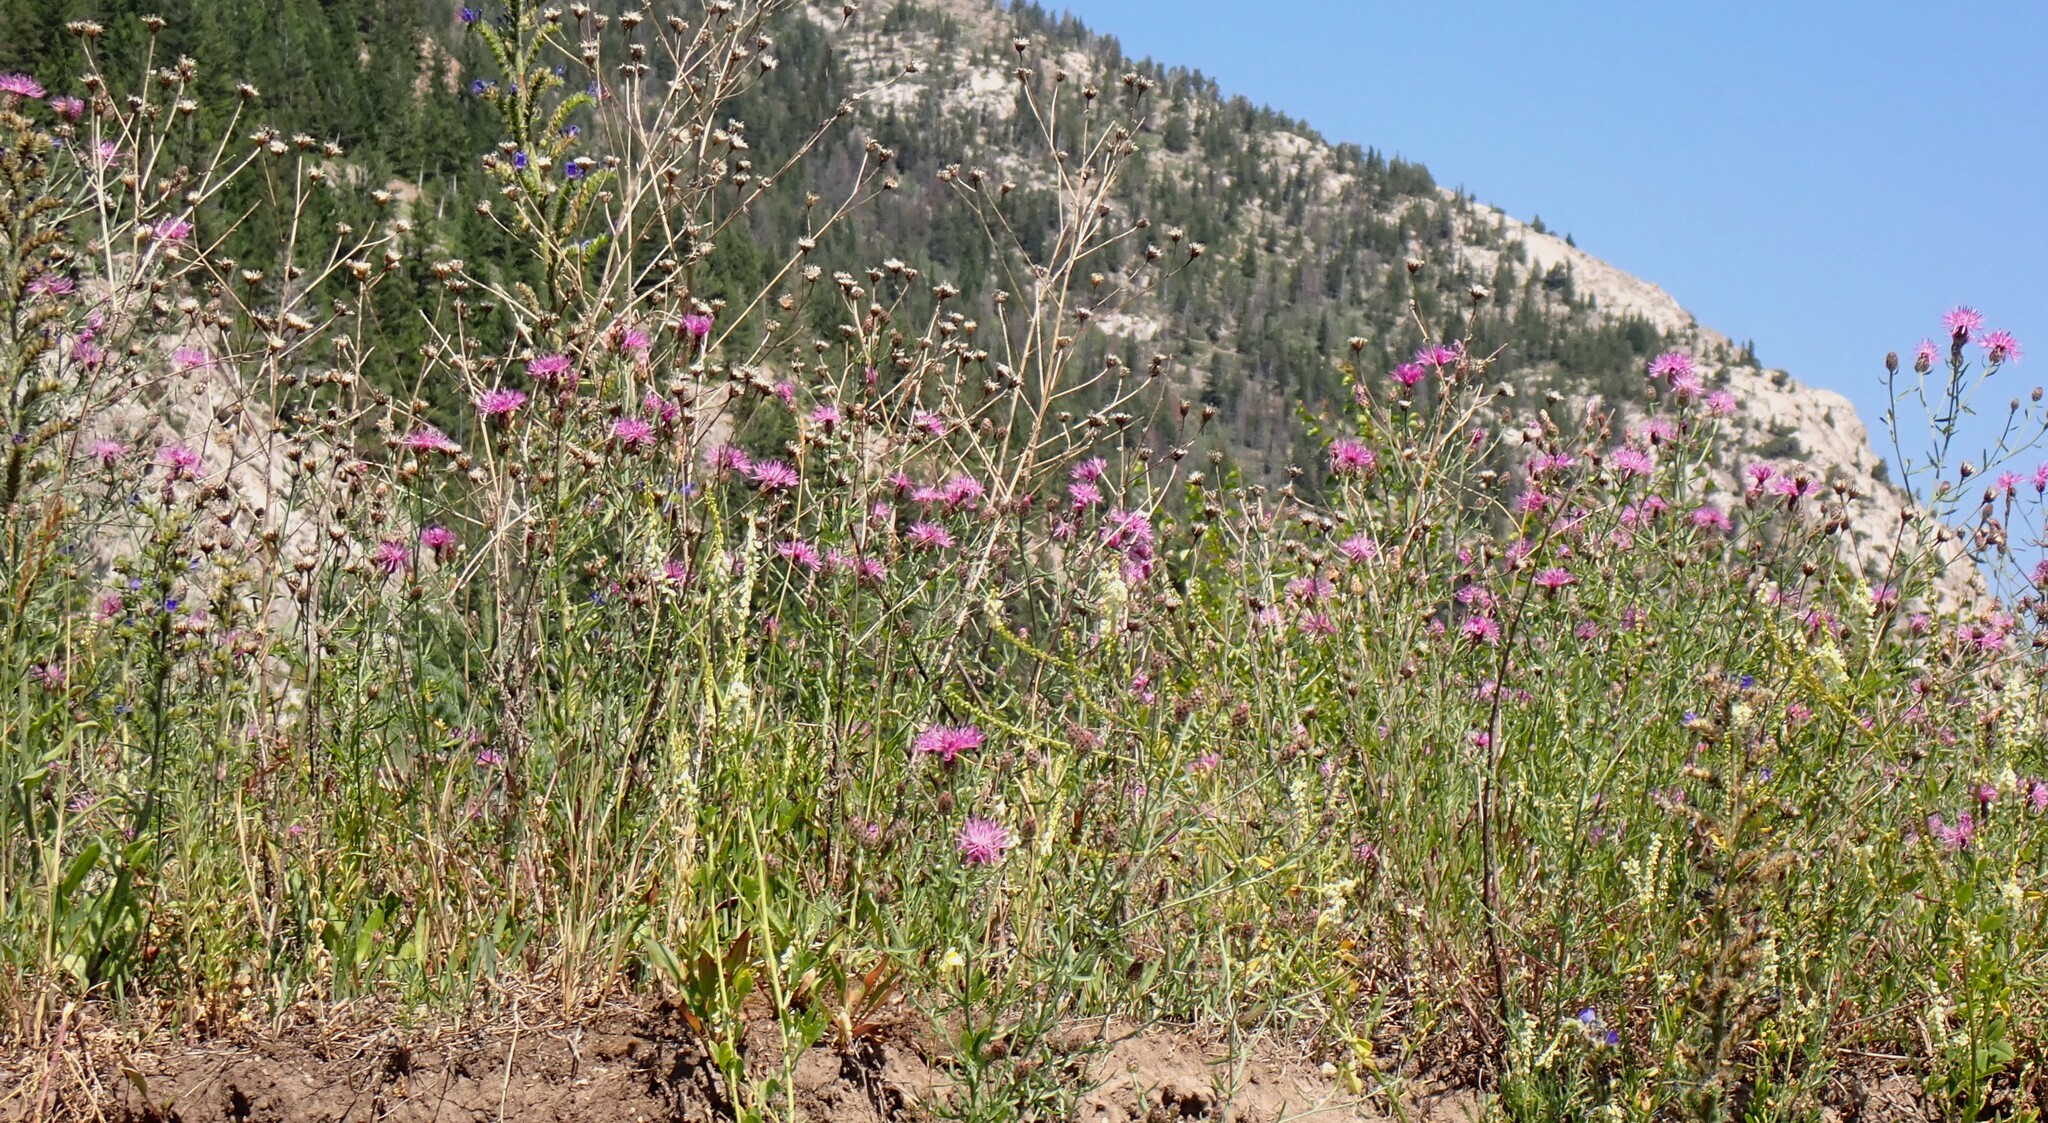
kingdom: Plantae
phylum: Tracheophyta
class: Magnoliopsida
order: Asterales
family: Asteraceae
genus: Centaurea
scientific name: Centaurea stoebe
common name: Spotted knapweed
